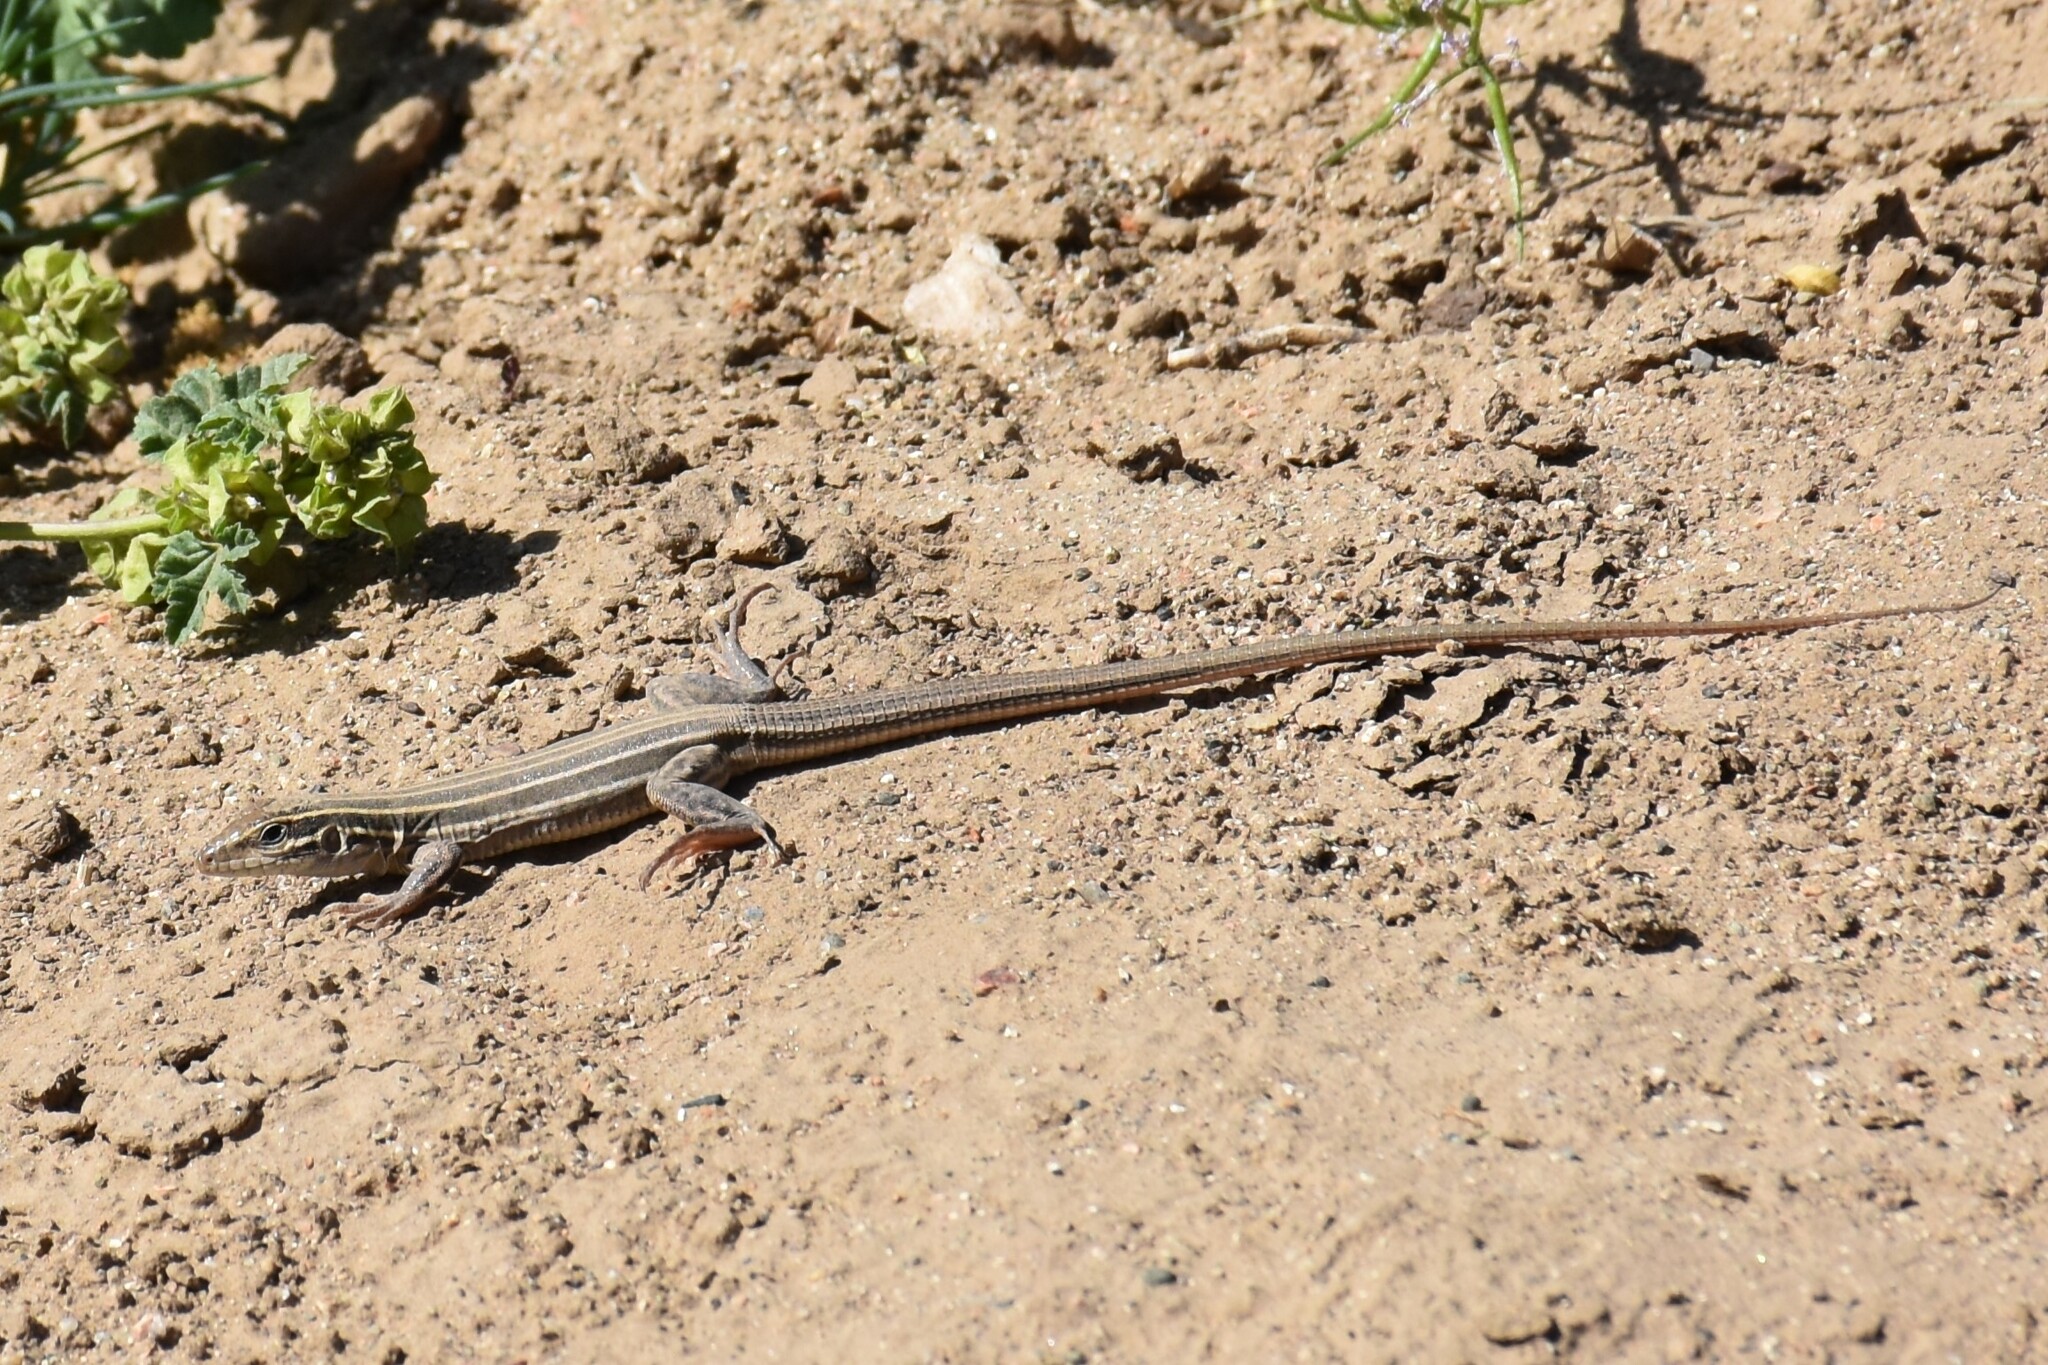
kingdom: Animalia
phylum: Chordata
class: Squamata
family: Teiidae
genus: Aspidoscelis
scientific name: Aspidoscelis
